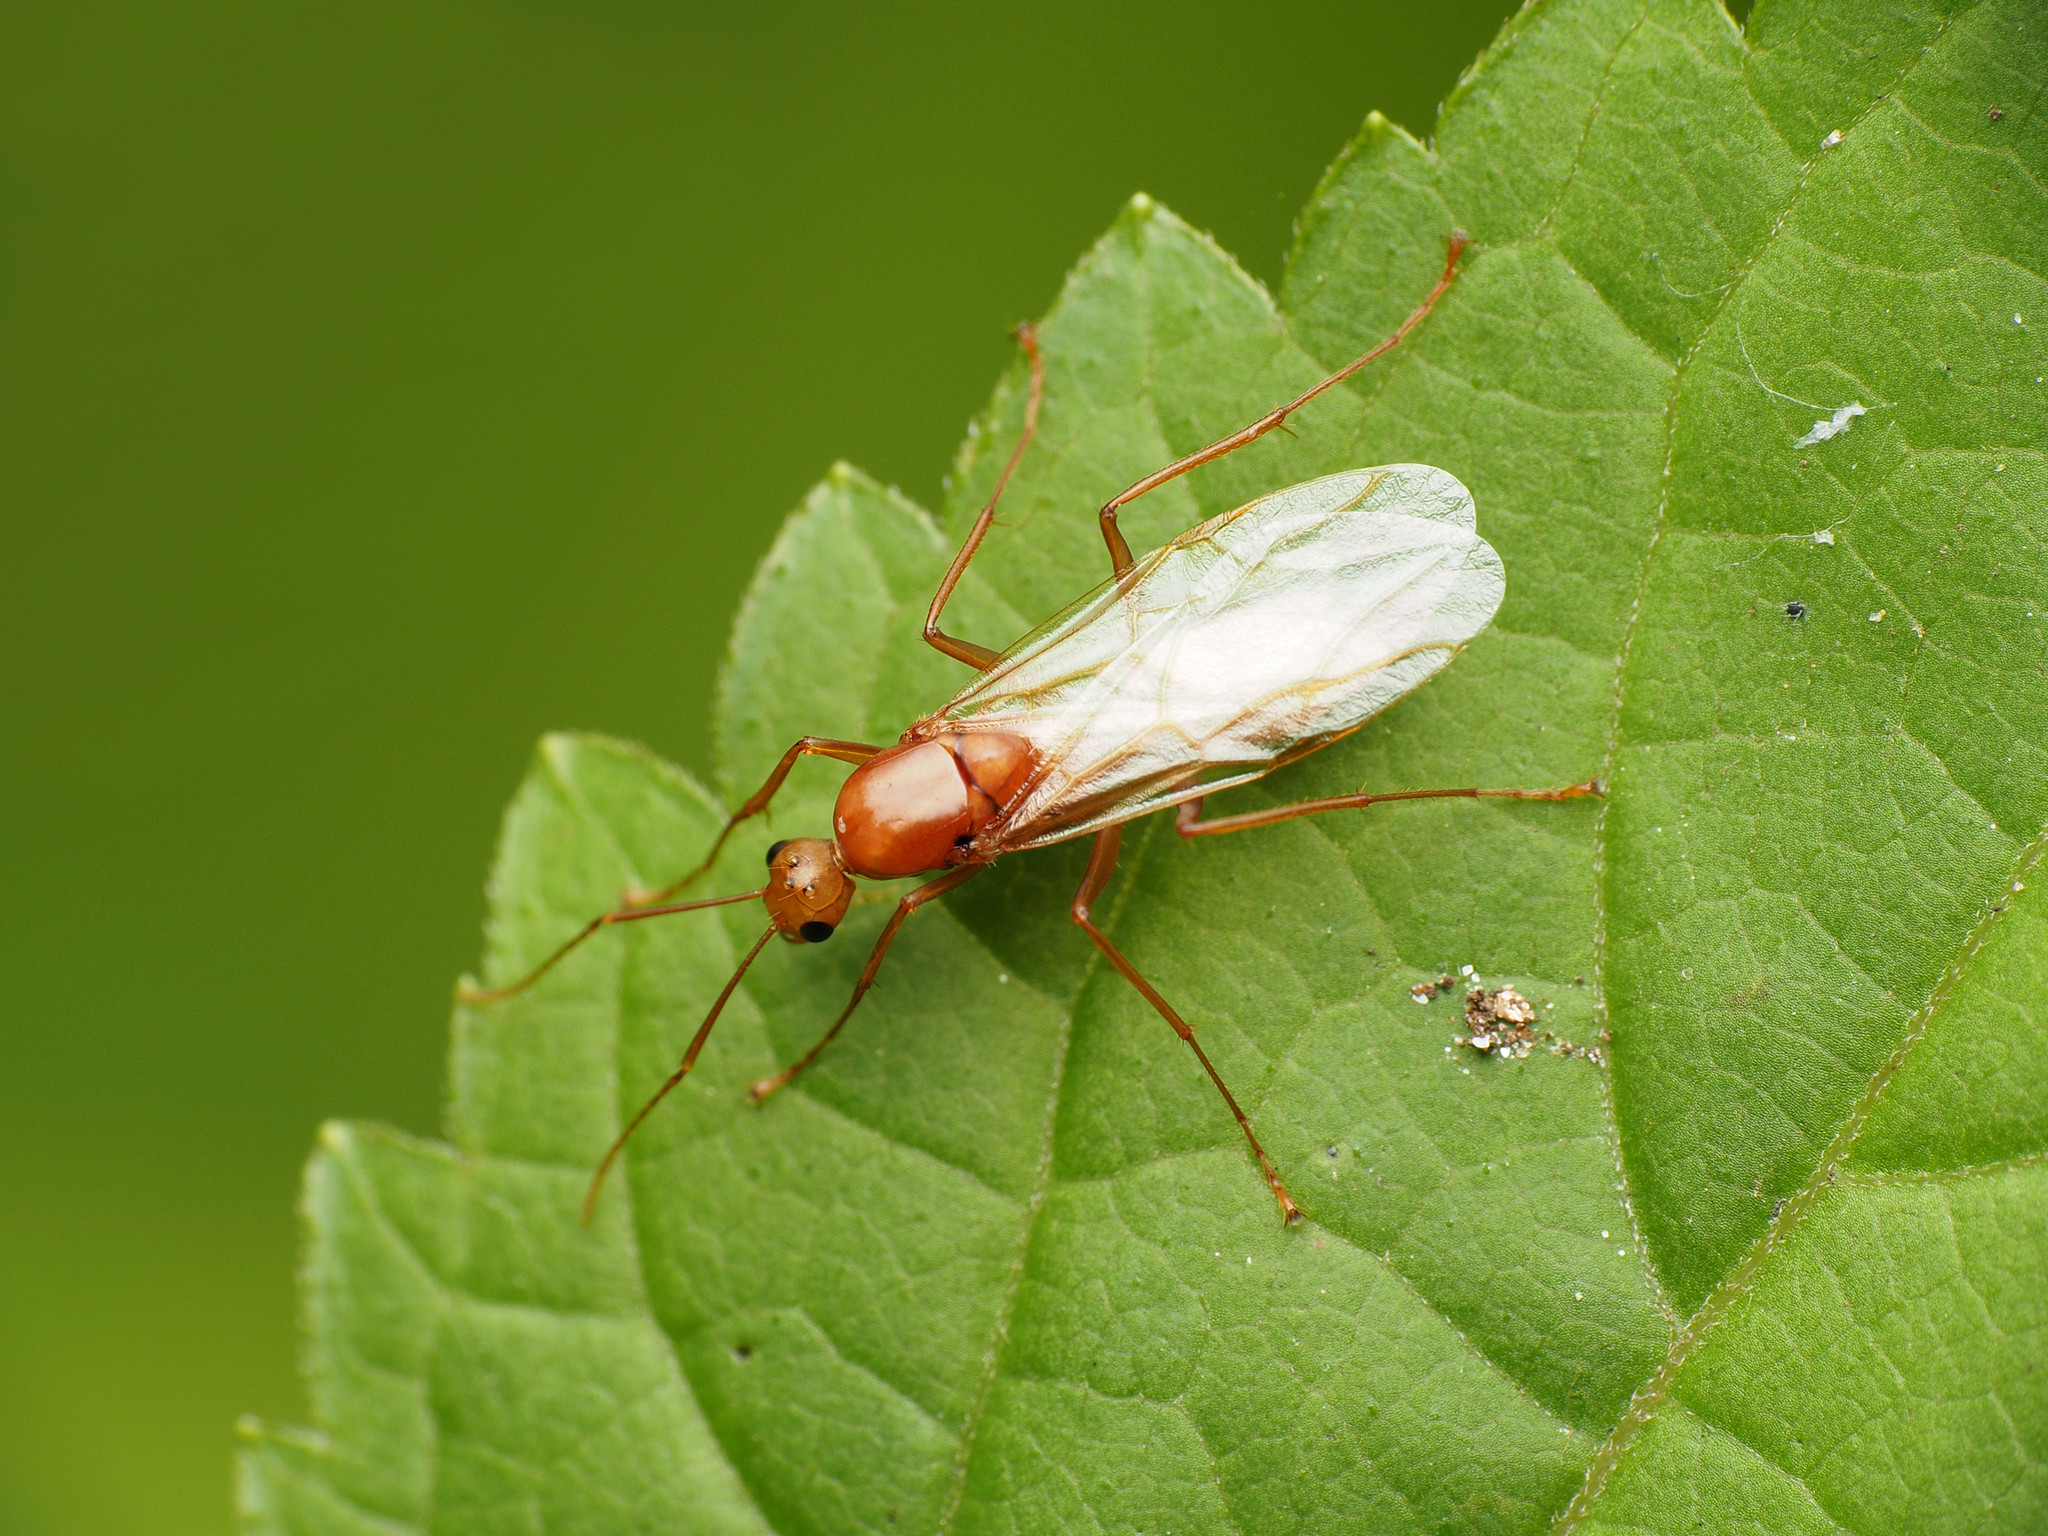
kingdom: Animalia
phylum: Arthropoda
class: Insecta
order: Hymenoptera
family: Formicidae
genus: Camponotus
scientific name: Camponotus castaneus
